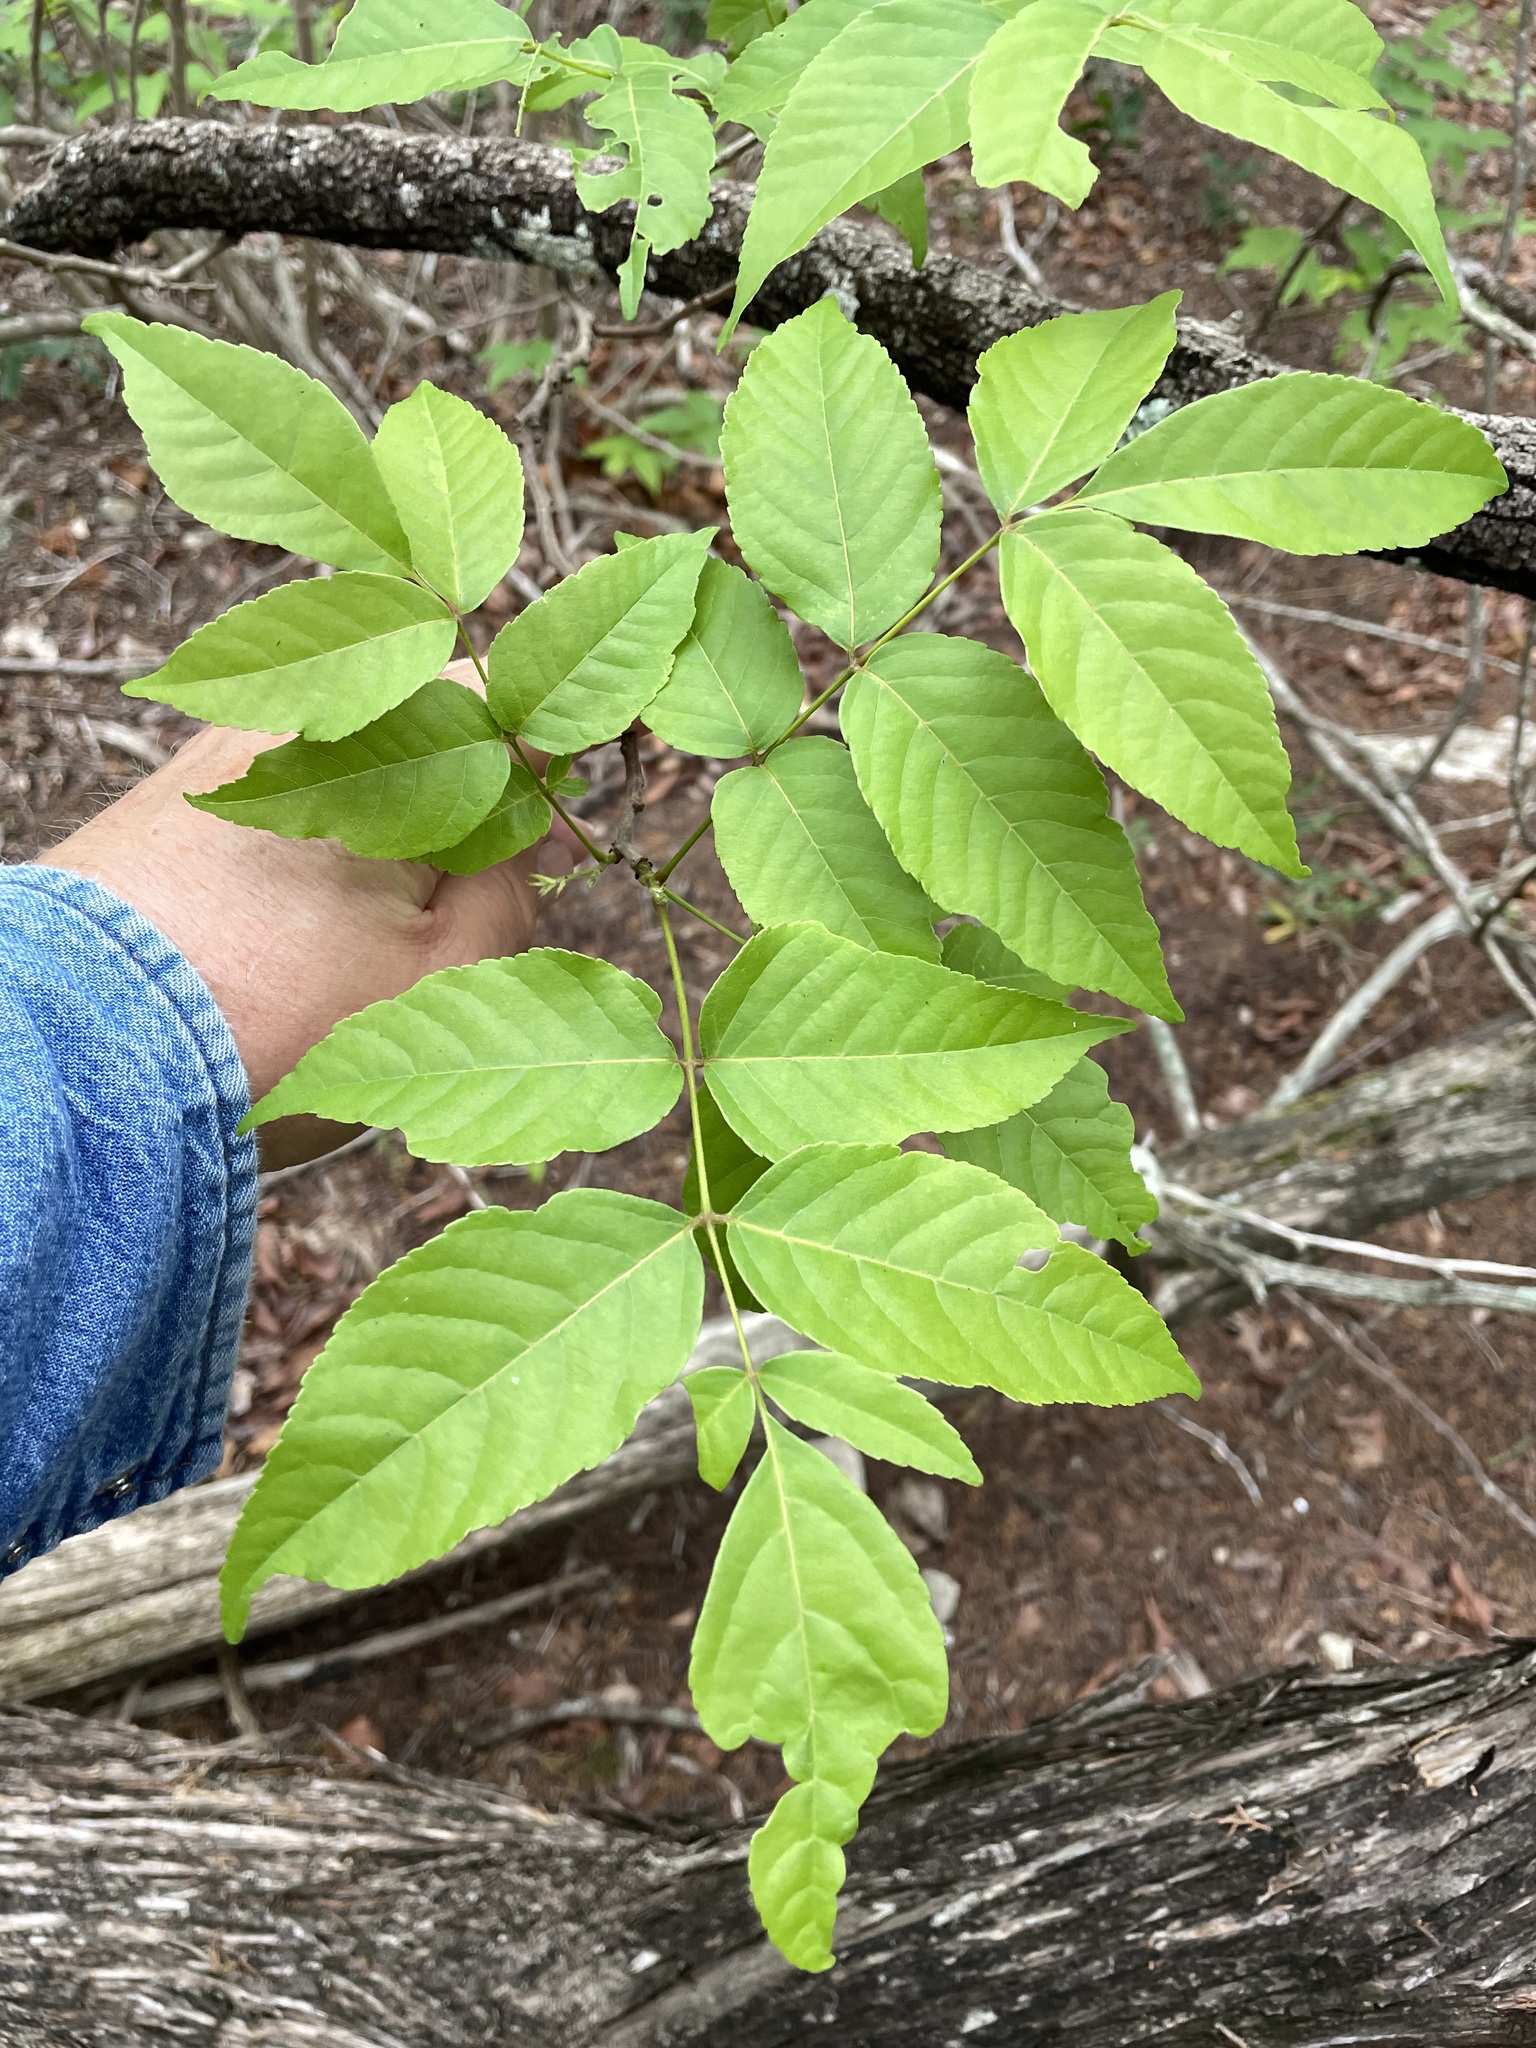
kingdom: Plantae
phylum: Tracheophyta
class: Magnoliopsida
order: Sapindales
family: Sapindaceae
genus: Ungnadia
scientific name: Ungnadia speciosa
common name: Texas-buckeye
